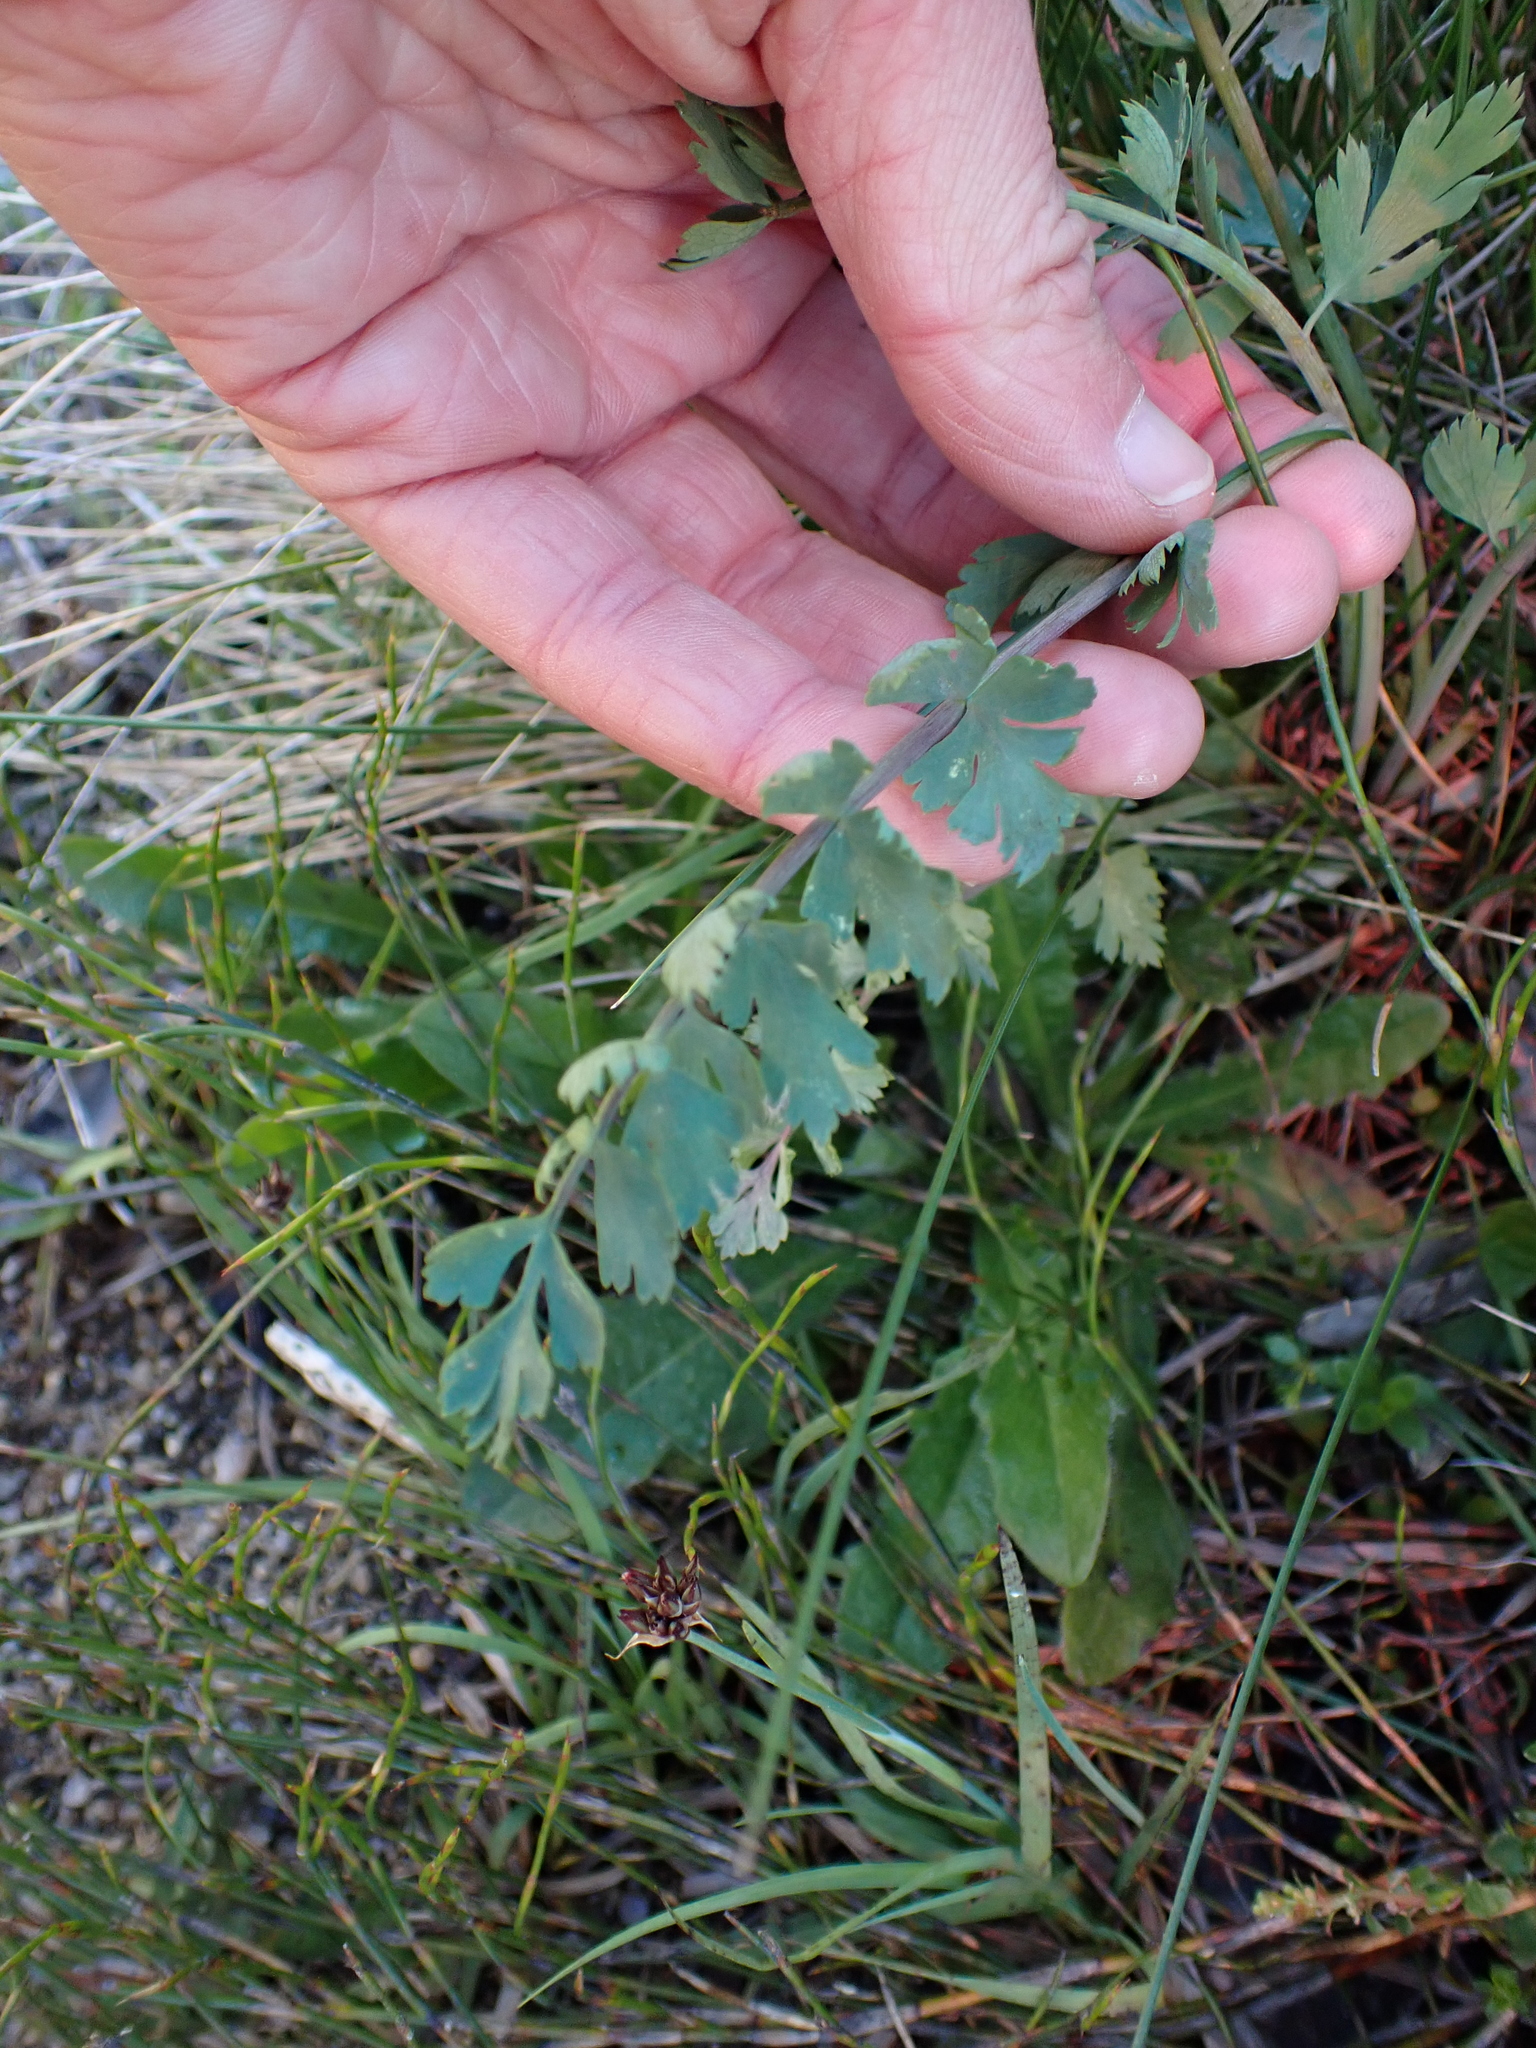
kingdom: Plantae
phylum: Tracheophyta
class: Magnoliopsida
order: Apiales
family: Apiaceae
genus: Gingidia
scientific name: Gingidia algens
